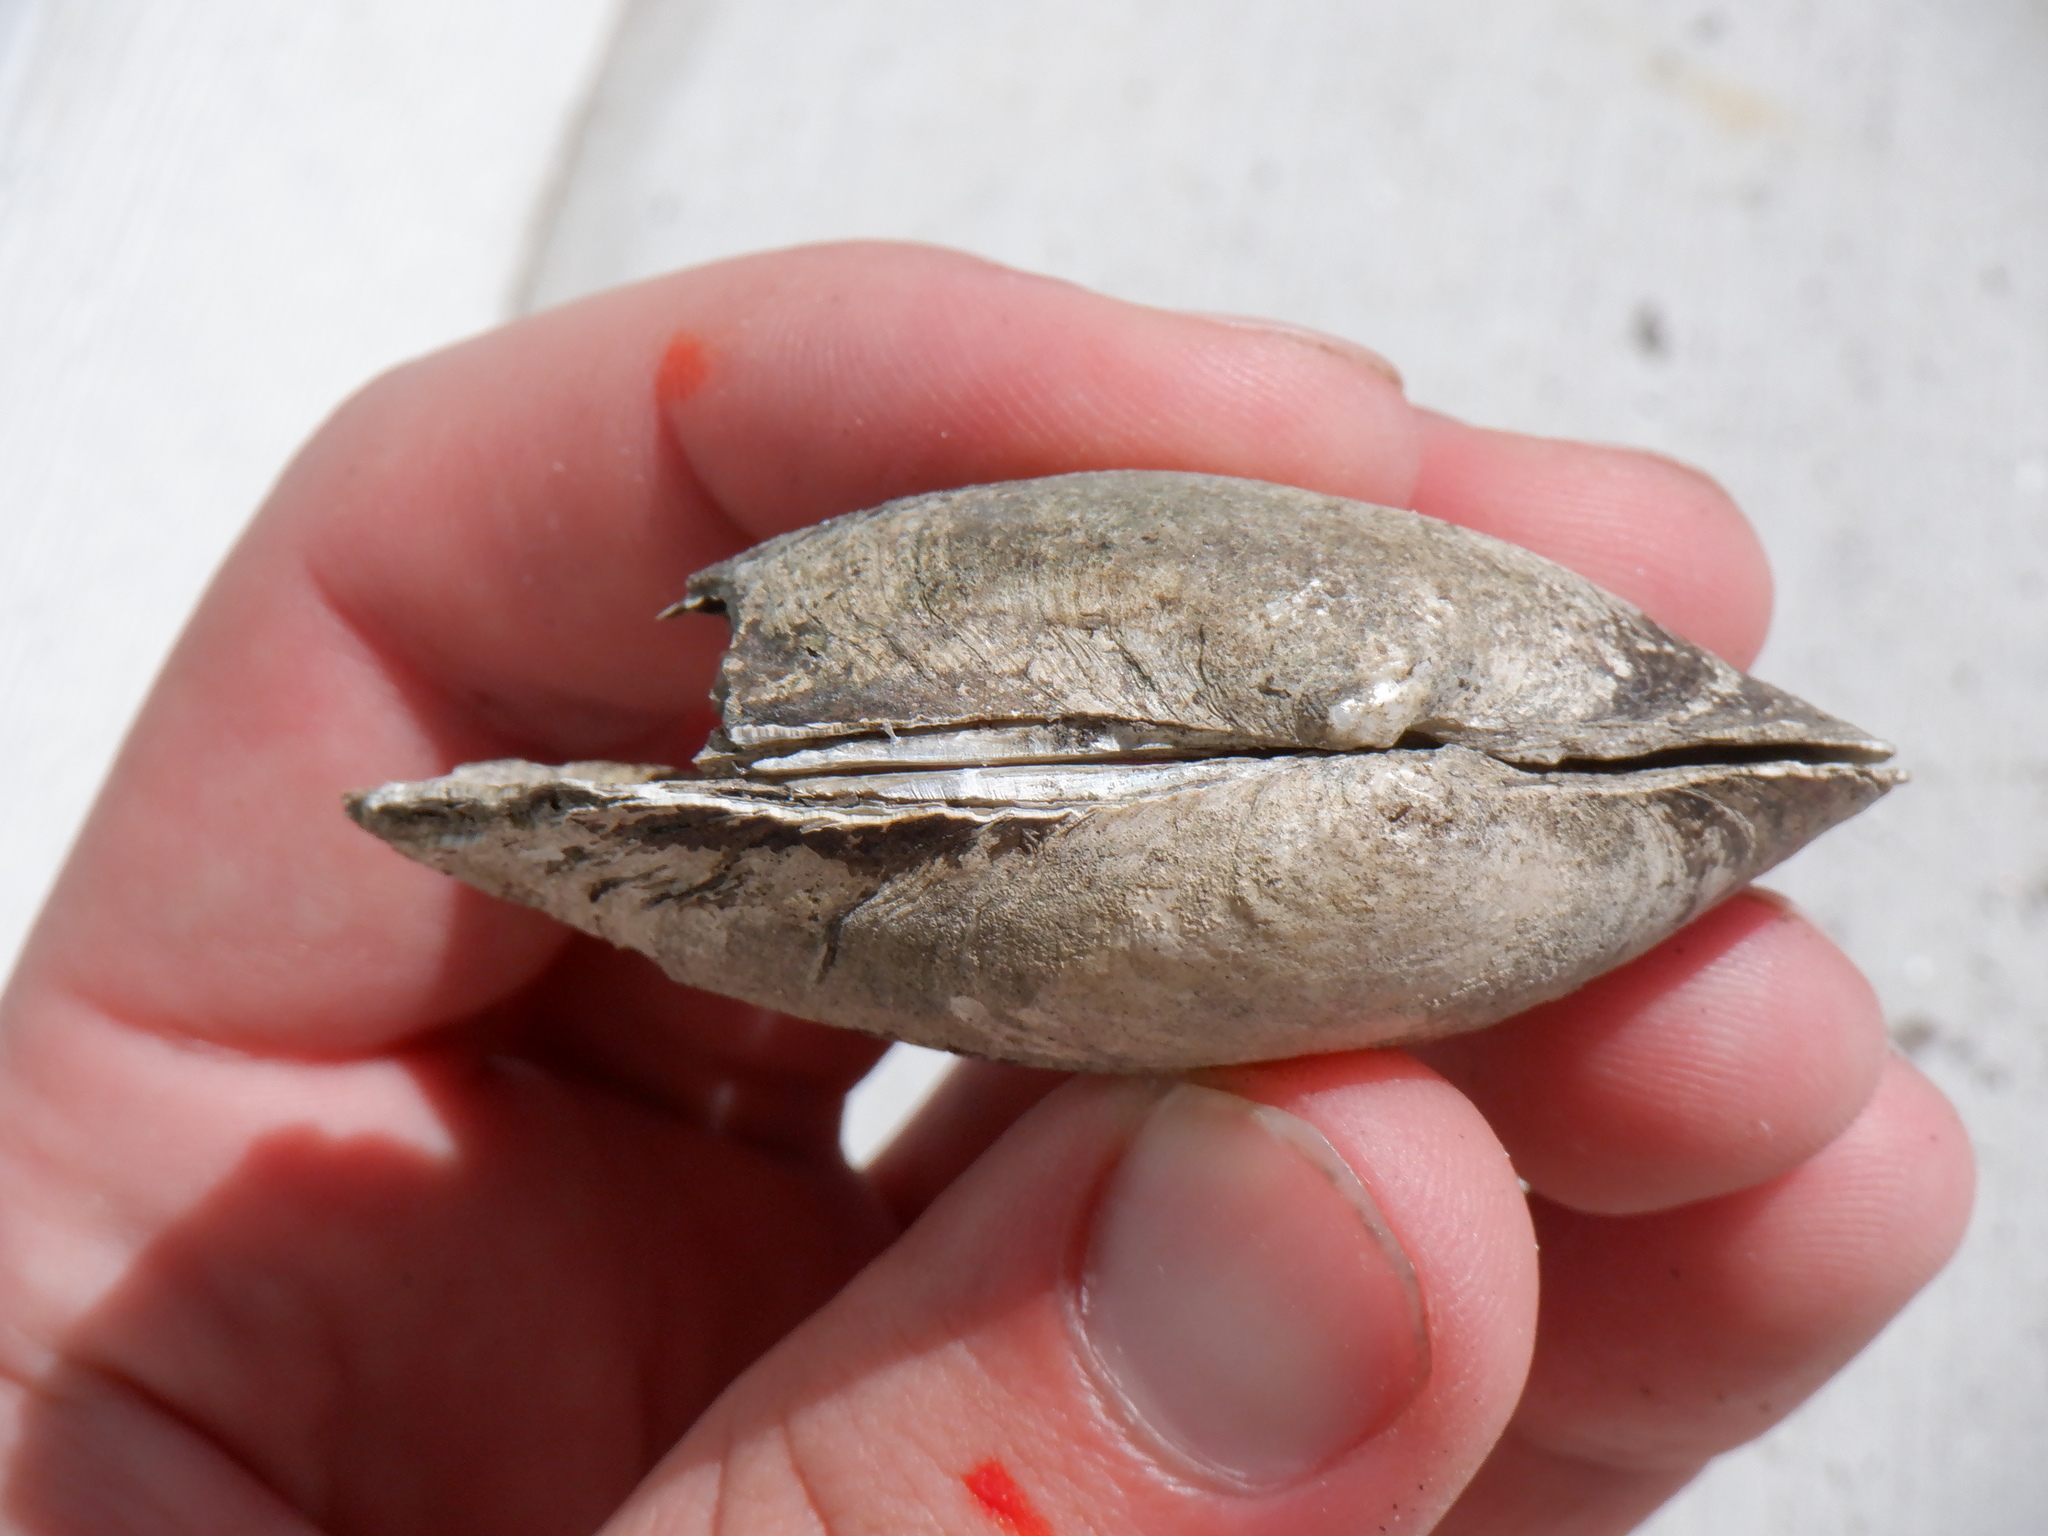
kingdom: Animalia
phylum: Mollusca
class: Bivalvia
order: Unionida
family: Unionidae
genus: Strophitus
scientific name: Strophitus undulatus
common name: Creeper
